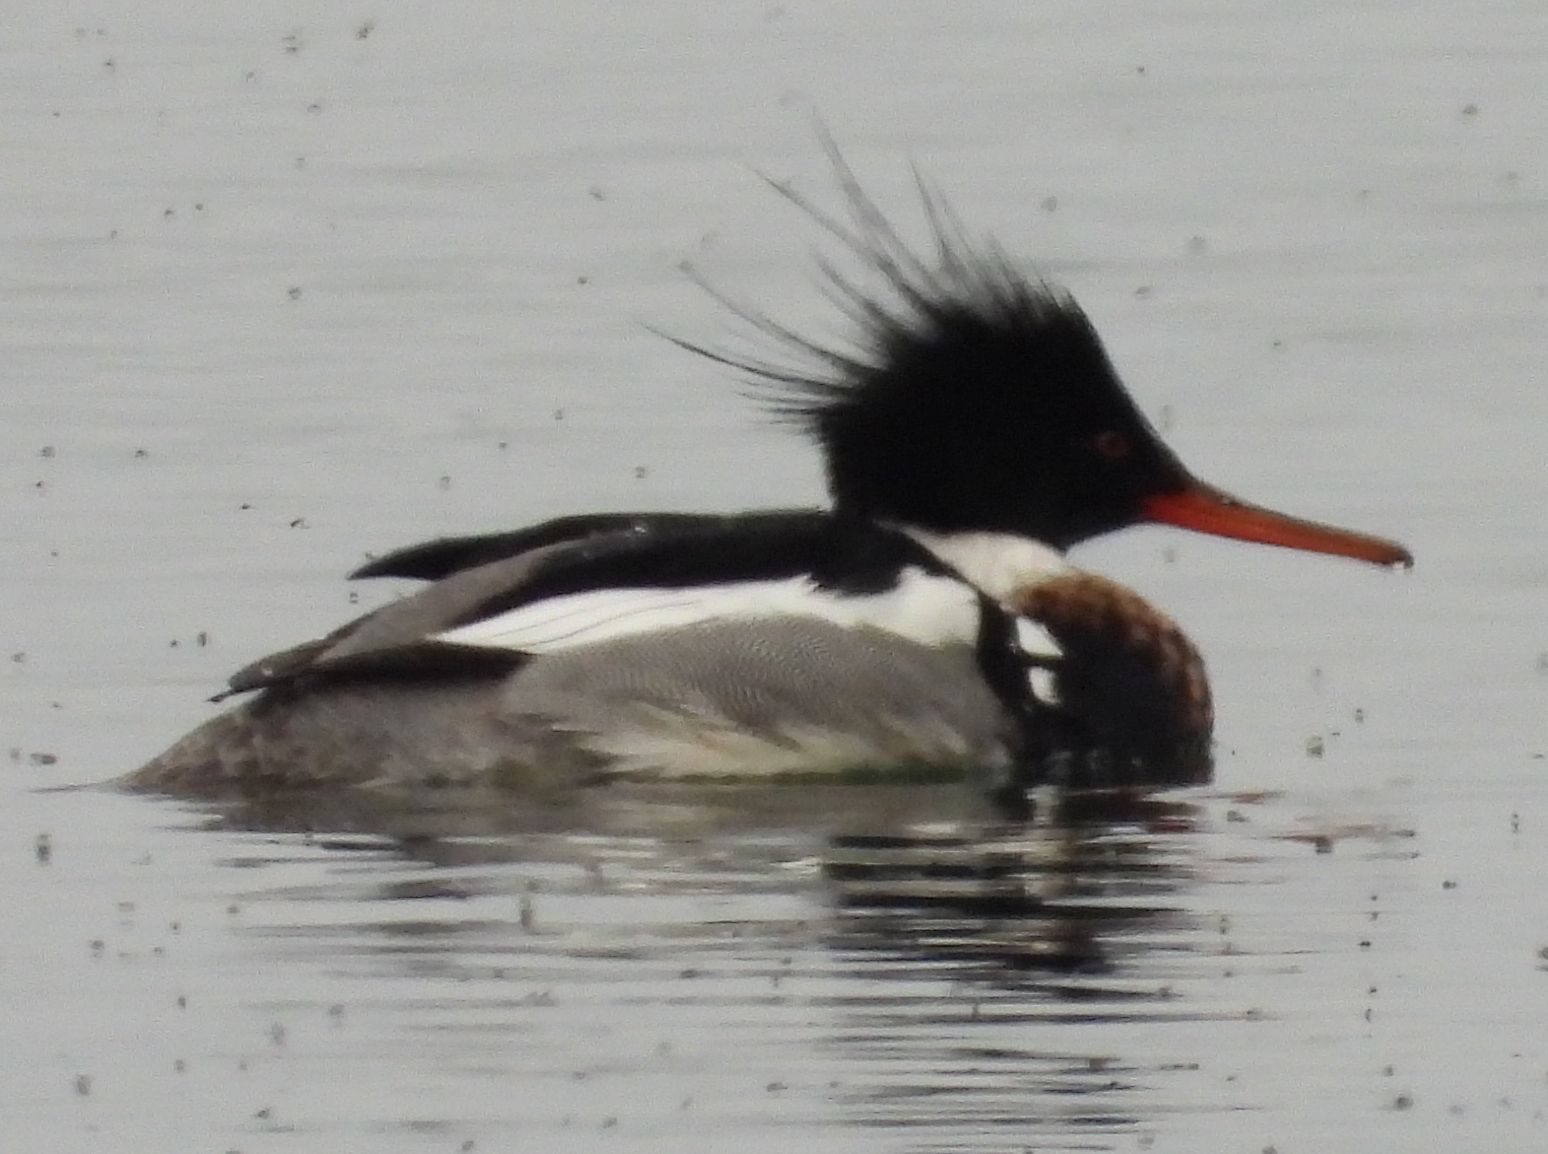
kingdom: Animalia
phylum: Chordata
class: Aves
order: Anseriformes
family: Anatidae
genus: Mergus
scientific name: Mergus serrator
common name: Red-breasted merganser
